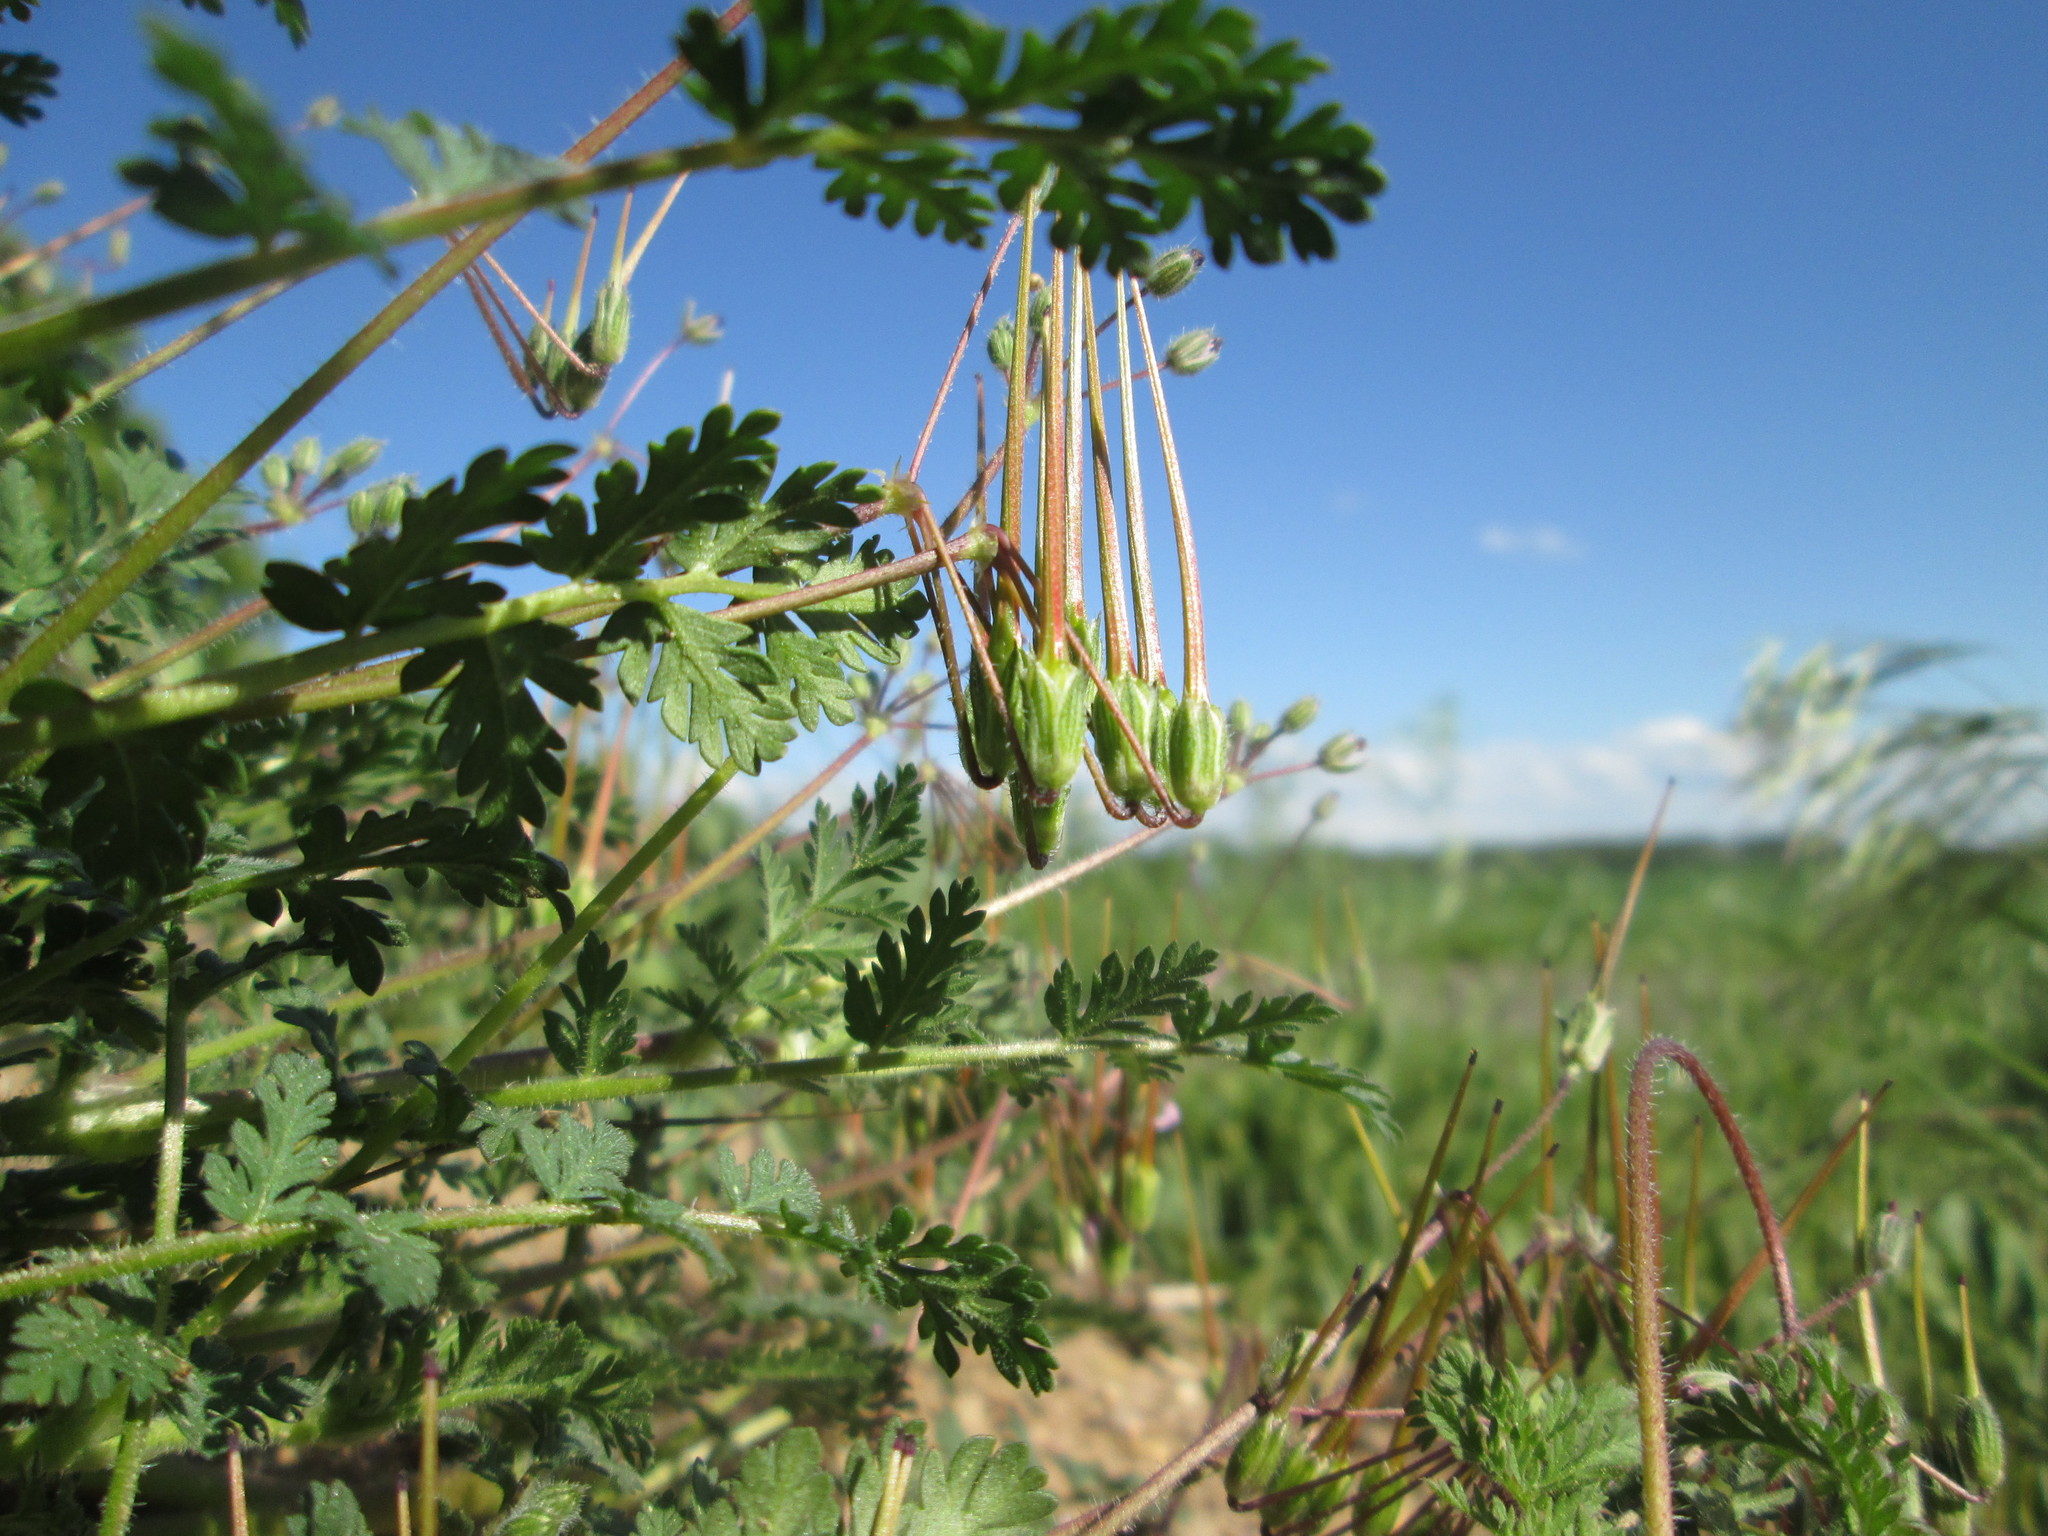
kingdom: Plantae
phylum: Tracheophyta
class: Magnoliopsida
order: Geraniales
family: Geraniaceae
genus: Erodium
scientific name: Erodium cicutarium
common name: Common stork's-bill
